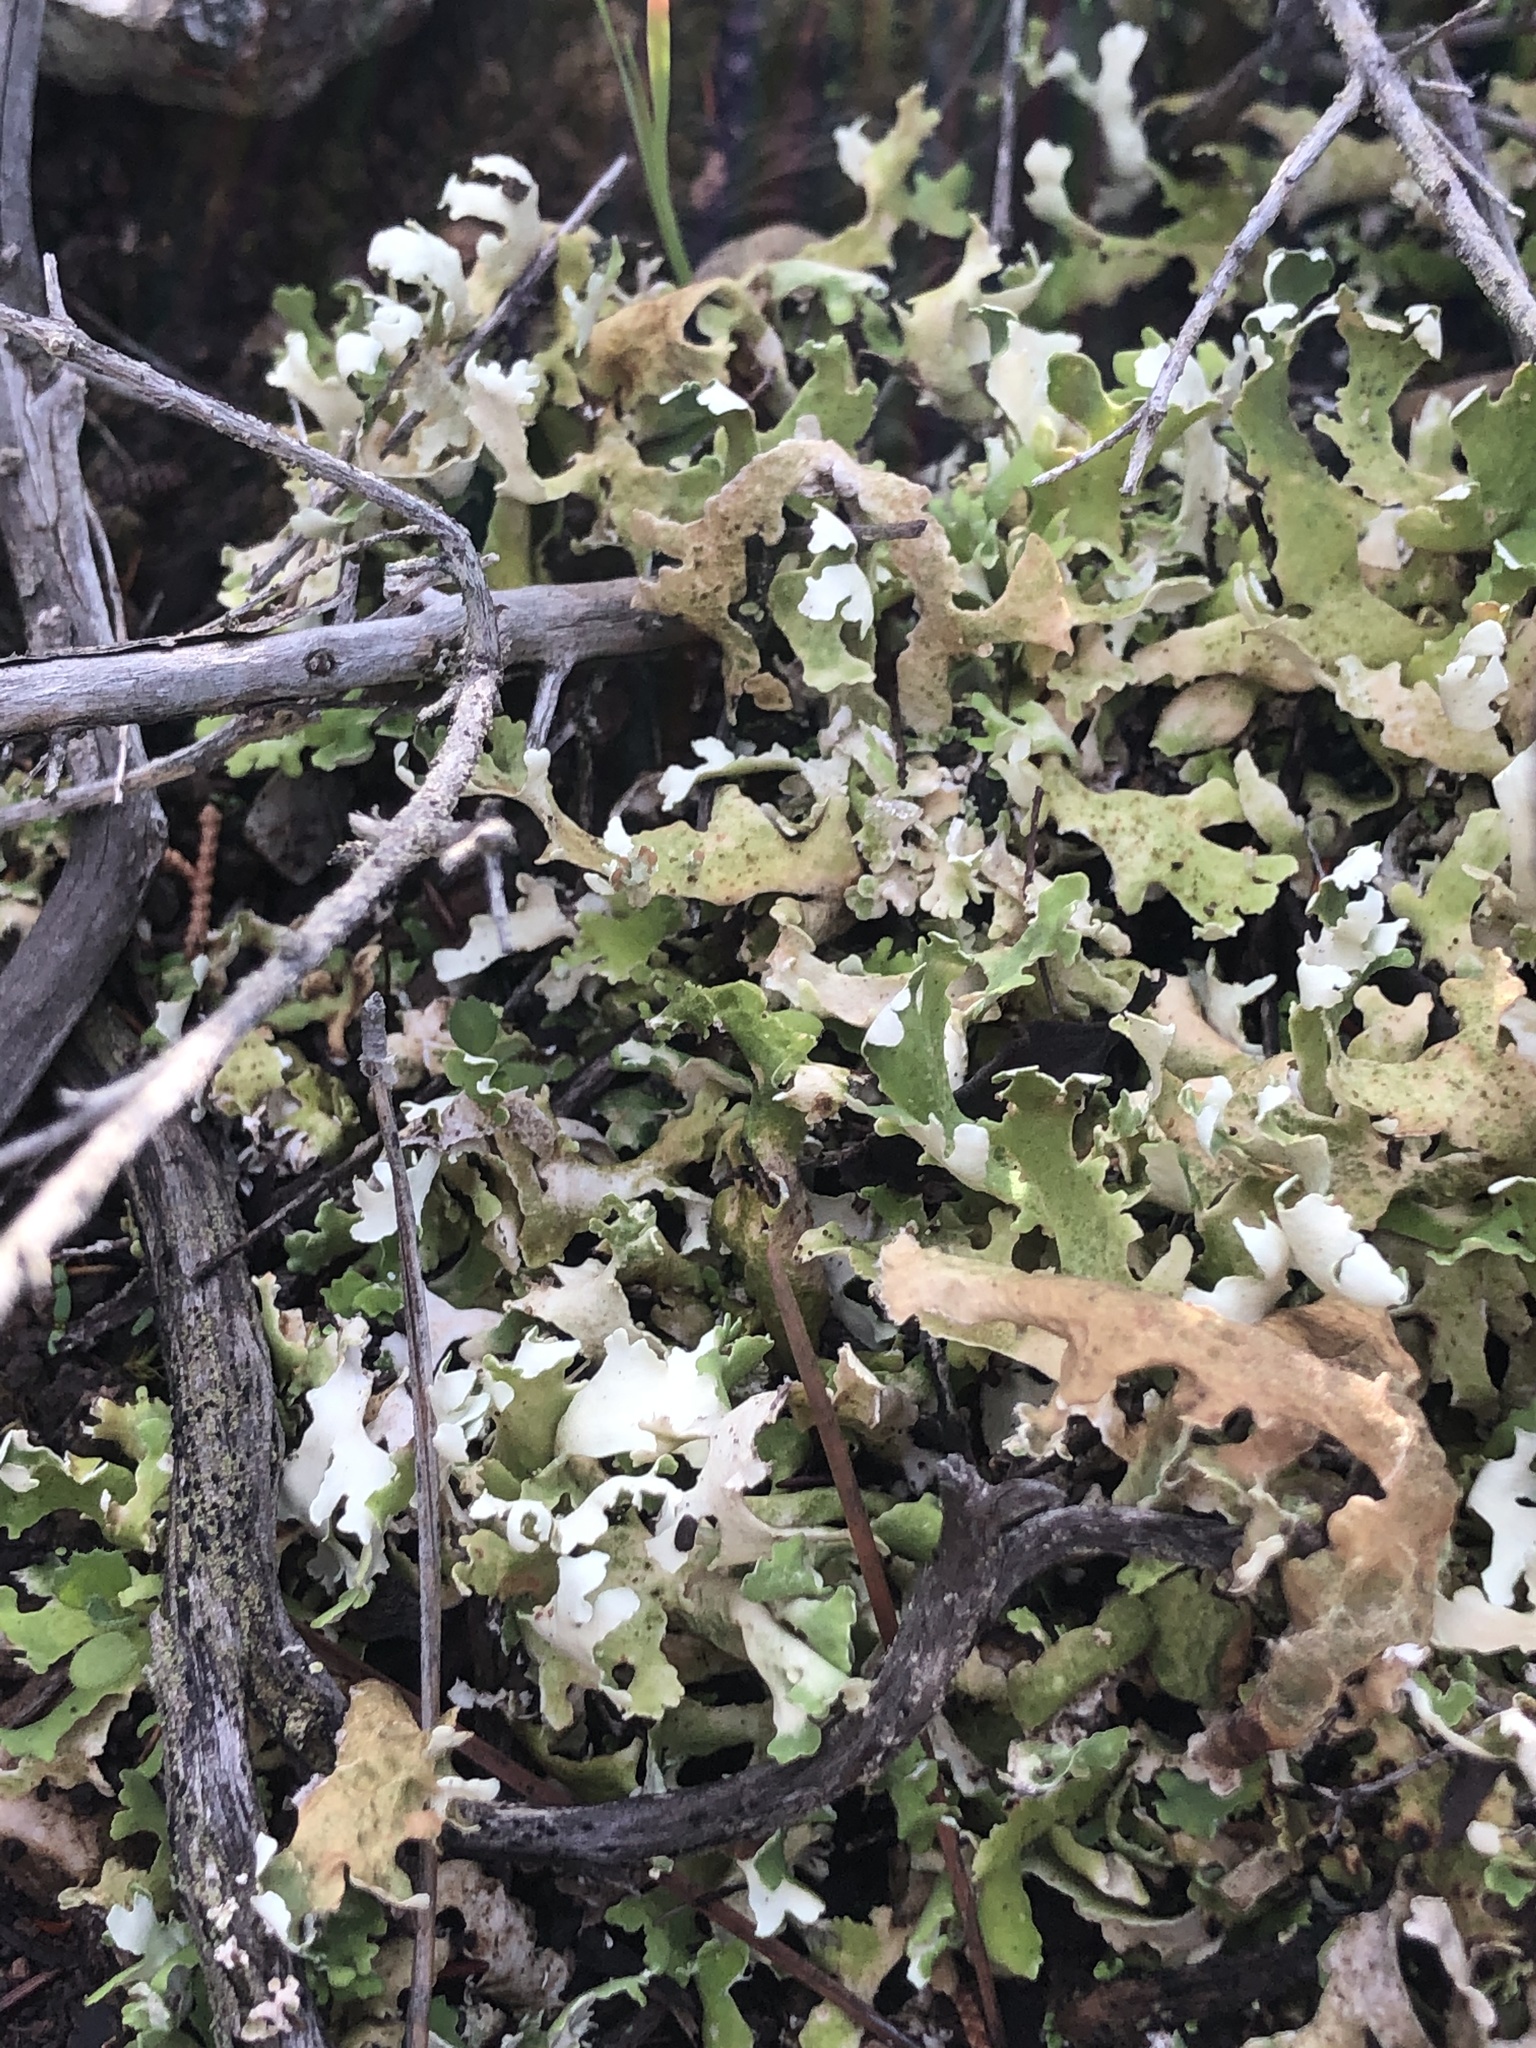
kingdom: Fungi
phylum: Ascomycota
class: Lecanoromycetes
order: Lecanorales
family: Cladoniaceae
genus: Cladonia
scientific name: Cladonia foliacea
